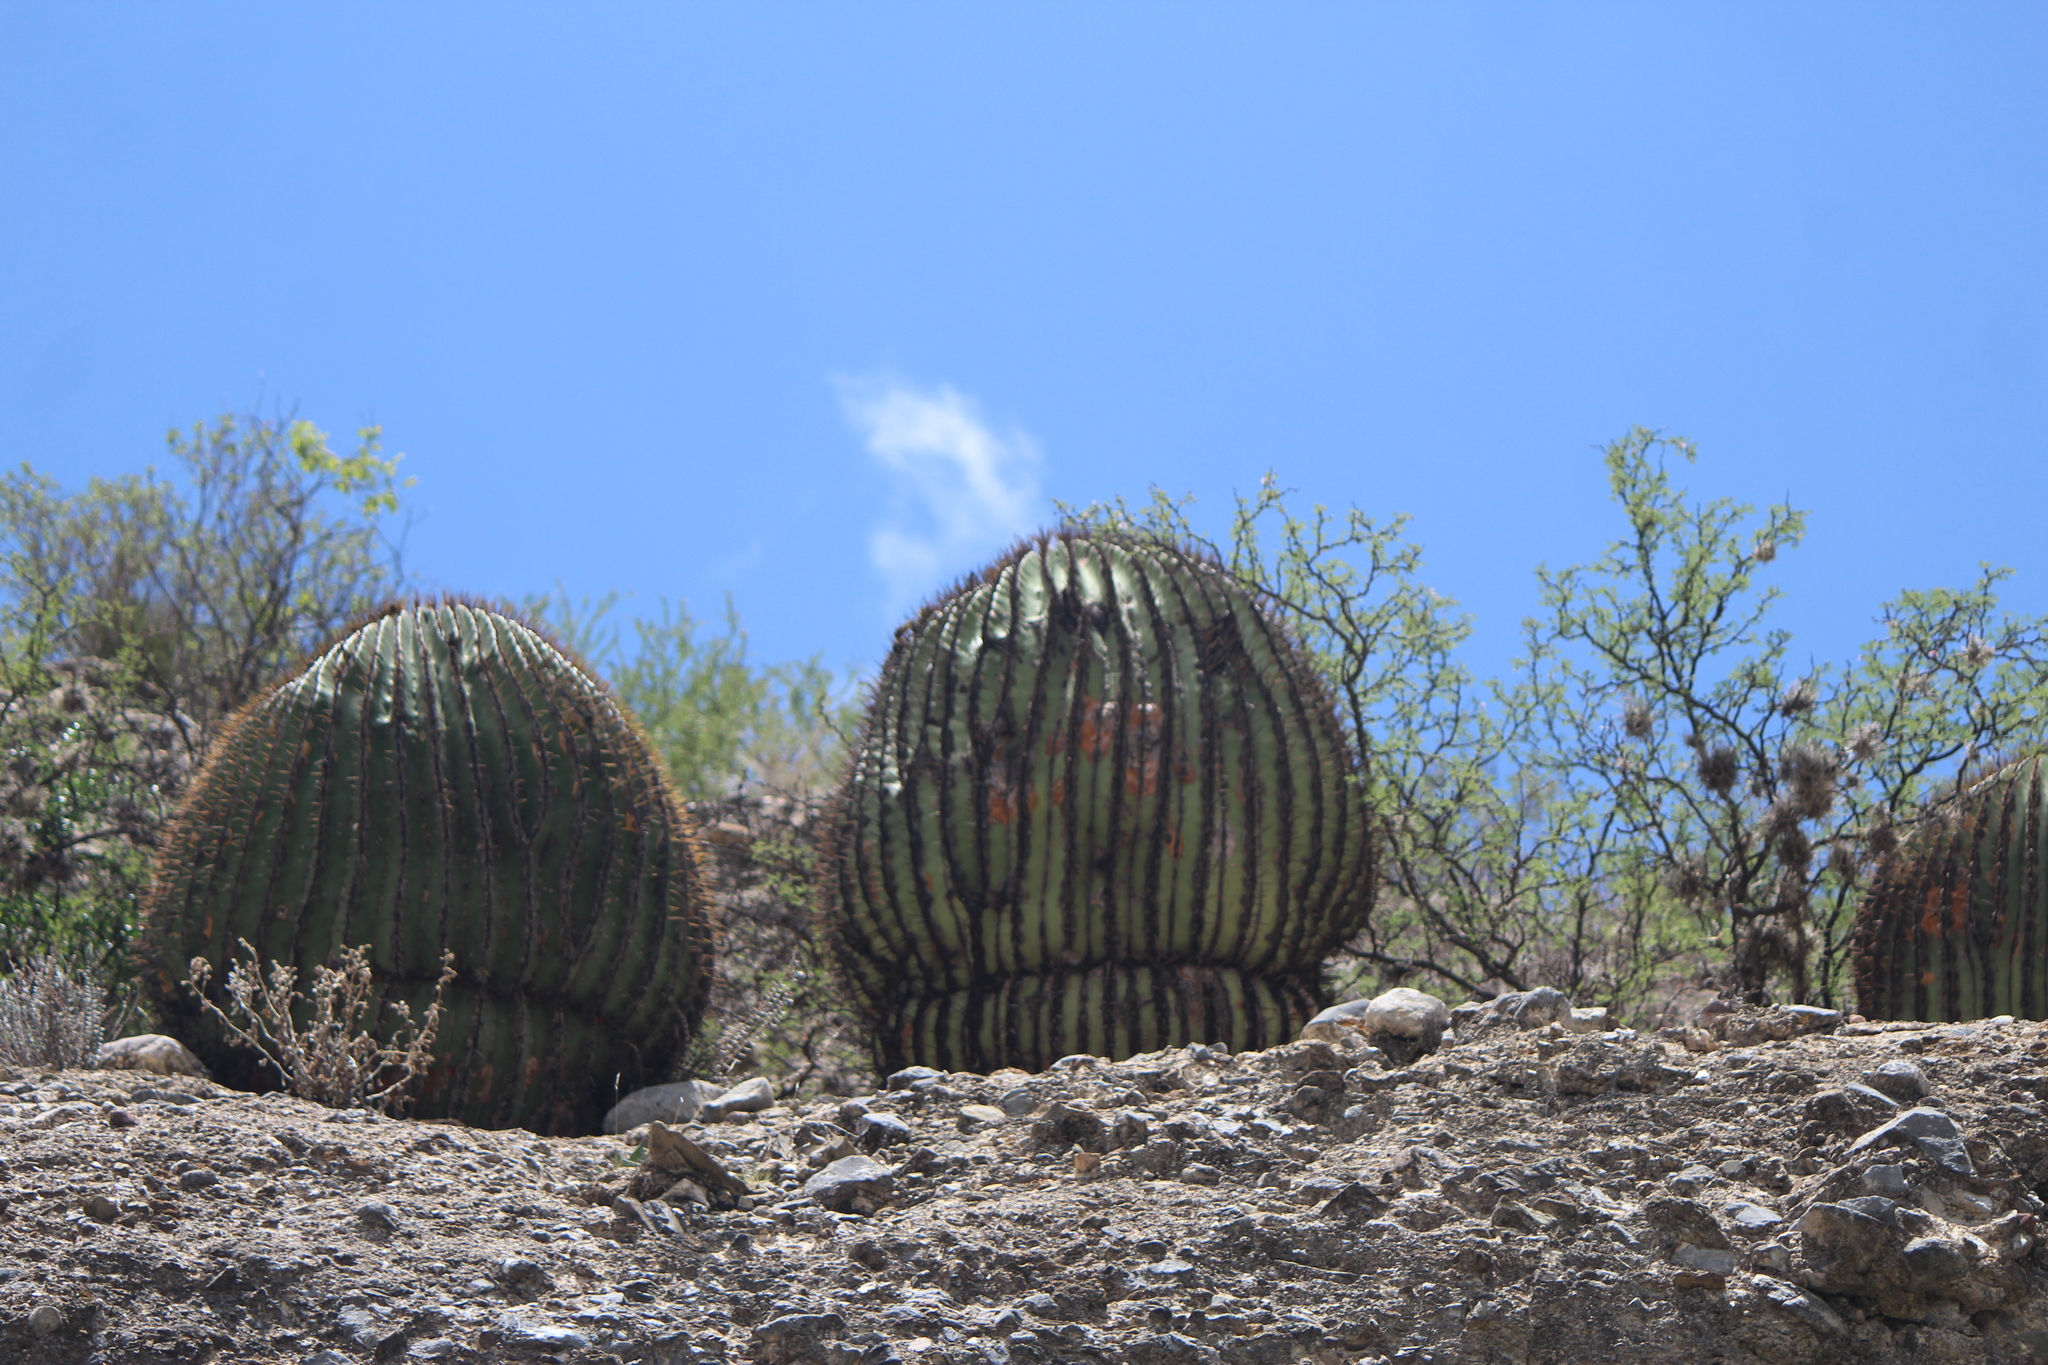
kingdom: Plantae
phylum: Tracheophyta
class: Magnoliopsida
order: Caryophyllales
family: Cactaceae
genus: Echinocactus
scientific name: Echinocactus platyacanthus
